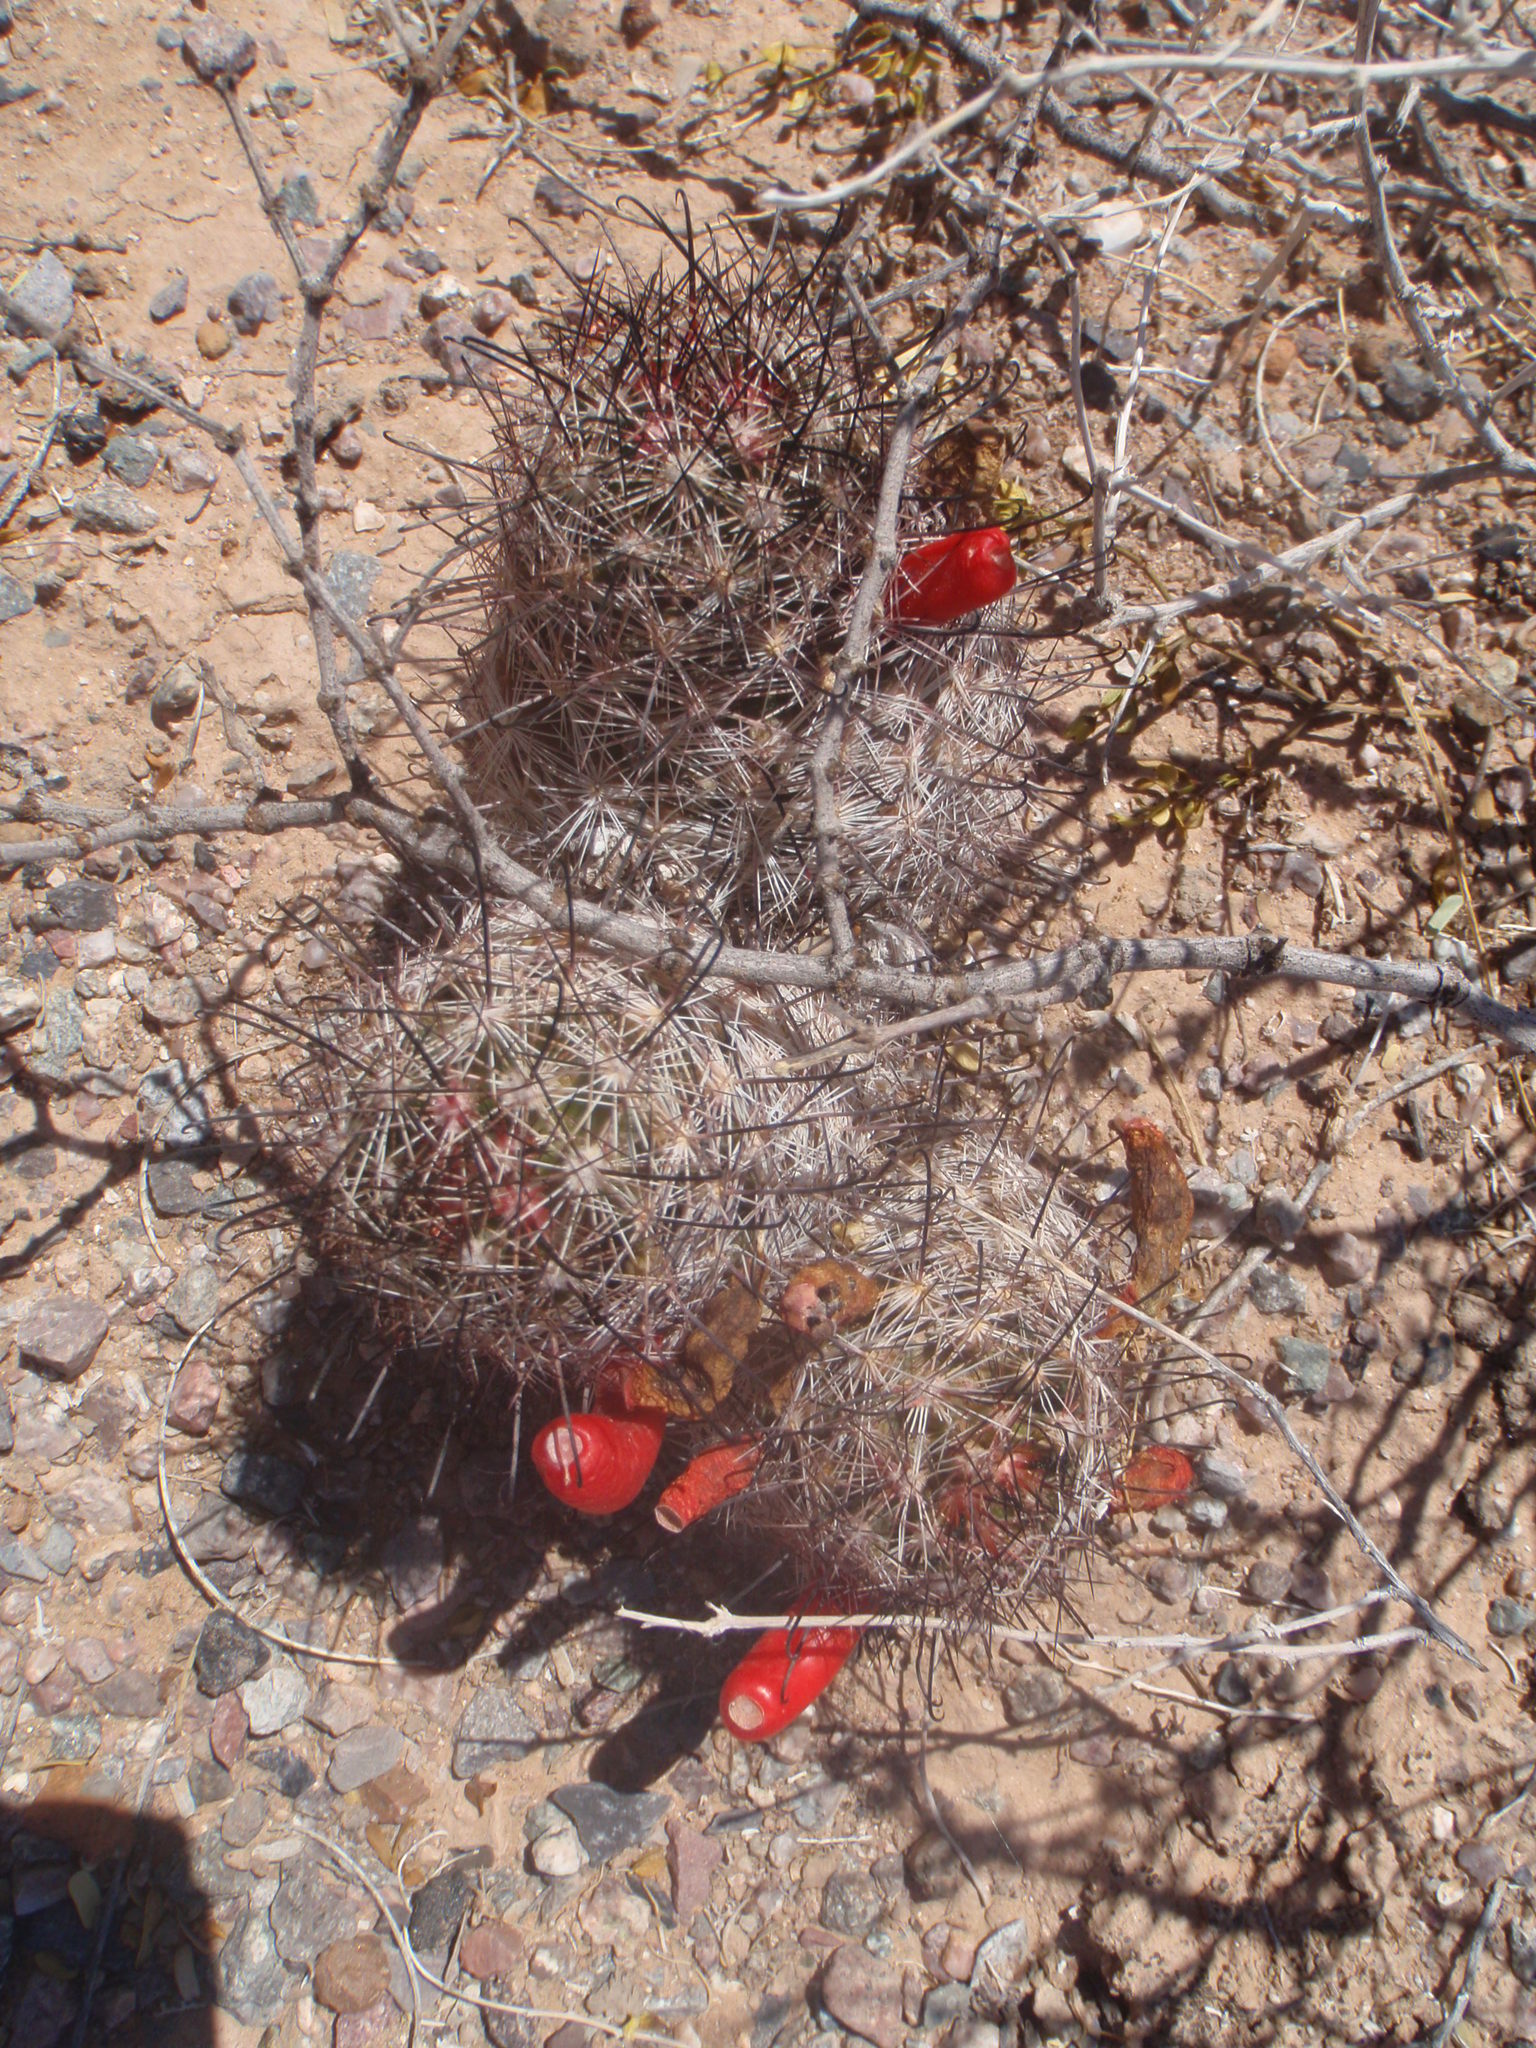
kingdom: Plantae
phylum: Tracheophyta
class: Magnoliopsida
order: Caryophyllales
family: Cactaceae
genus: Cochemiea
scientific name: Cochemiea tetrancistra
